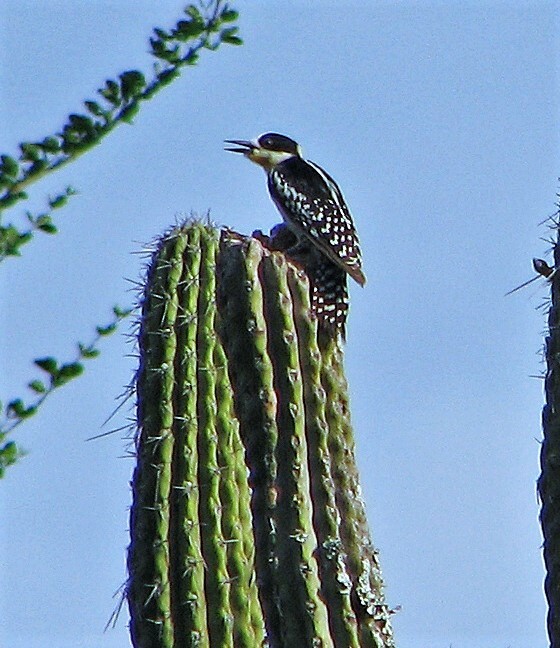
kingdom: Animalia
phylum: Chordata
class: Aves
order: Piciformes
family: Picidae
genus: Melanerpes
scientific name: Melanerpes cactorum
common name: White-fronted woodpecker
